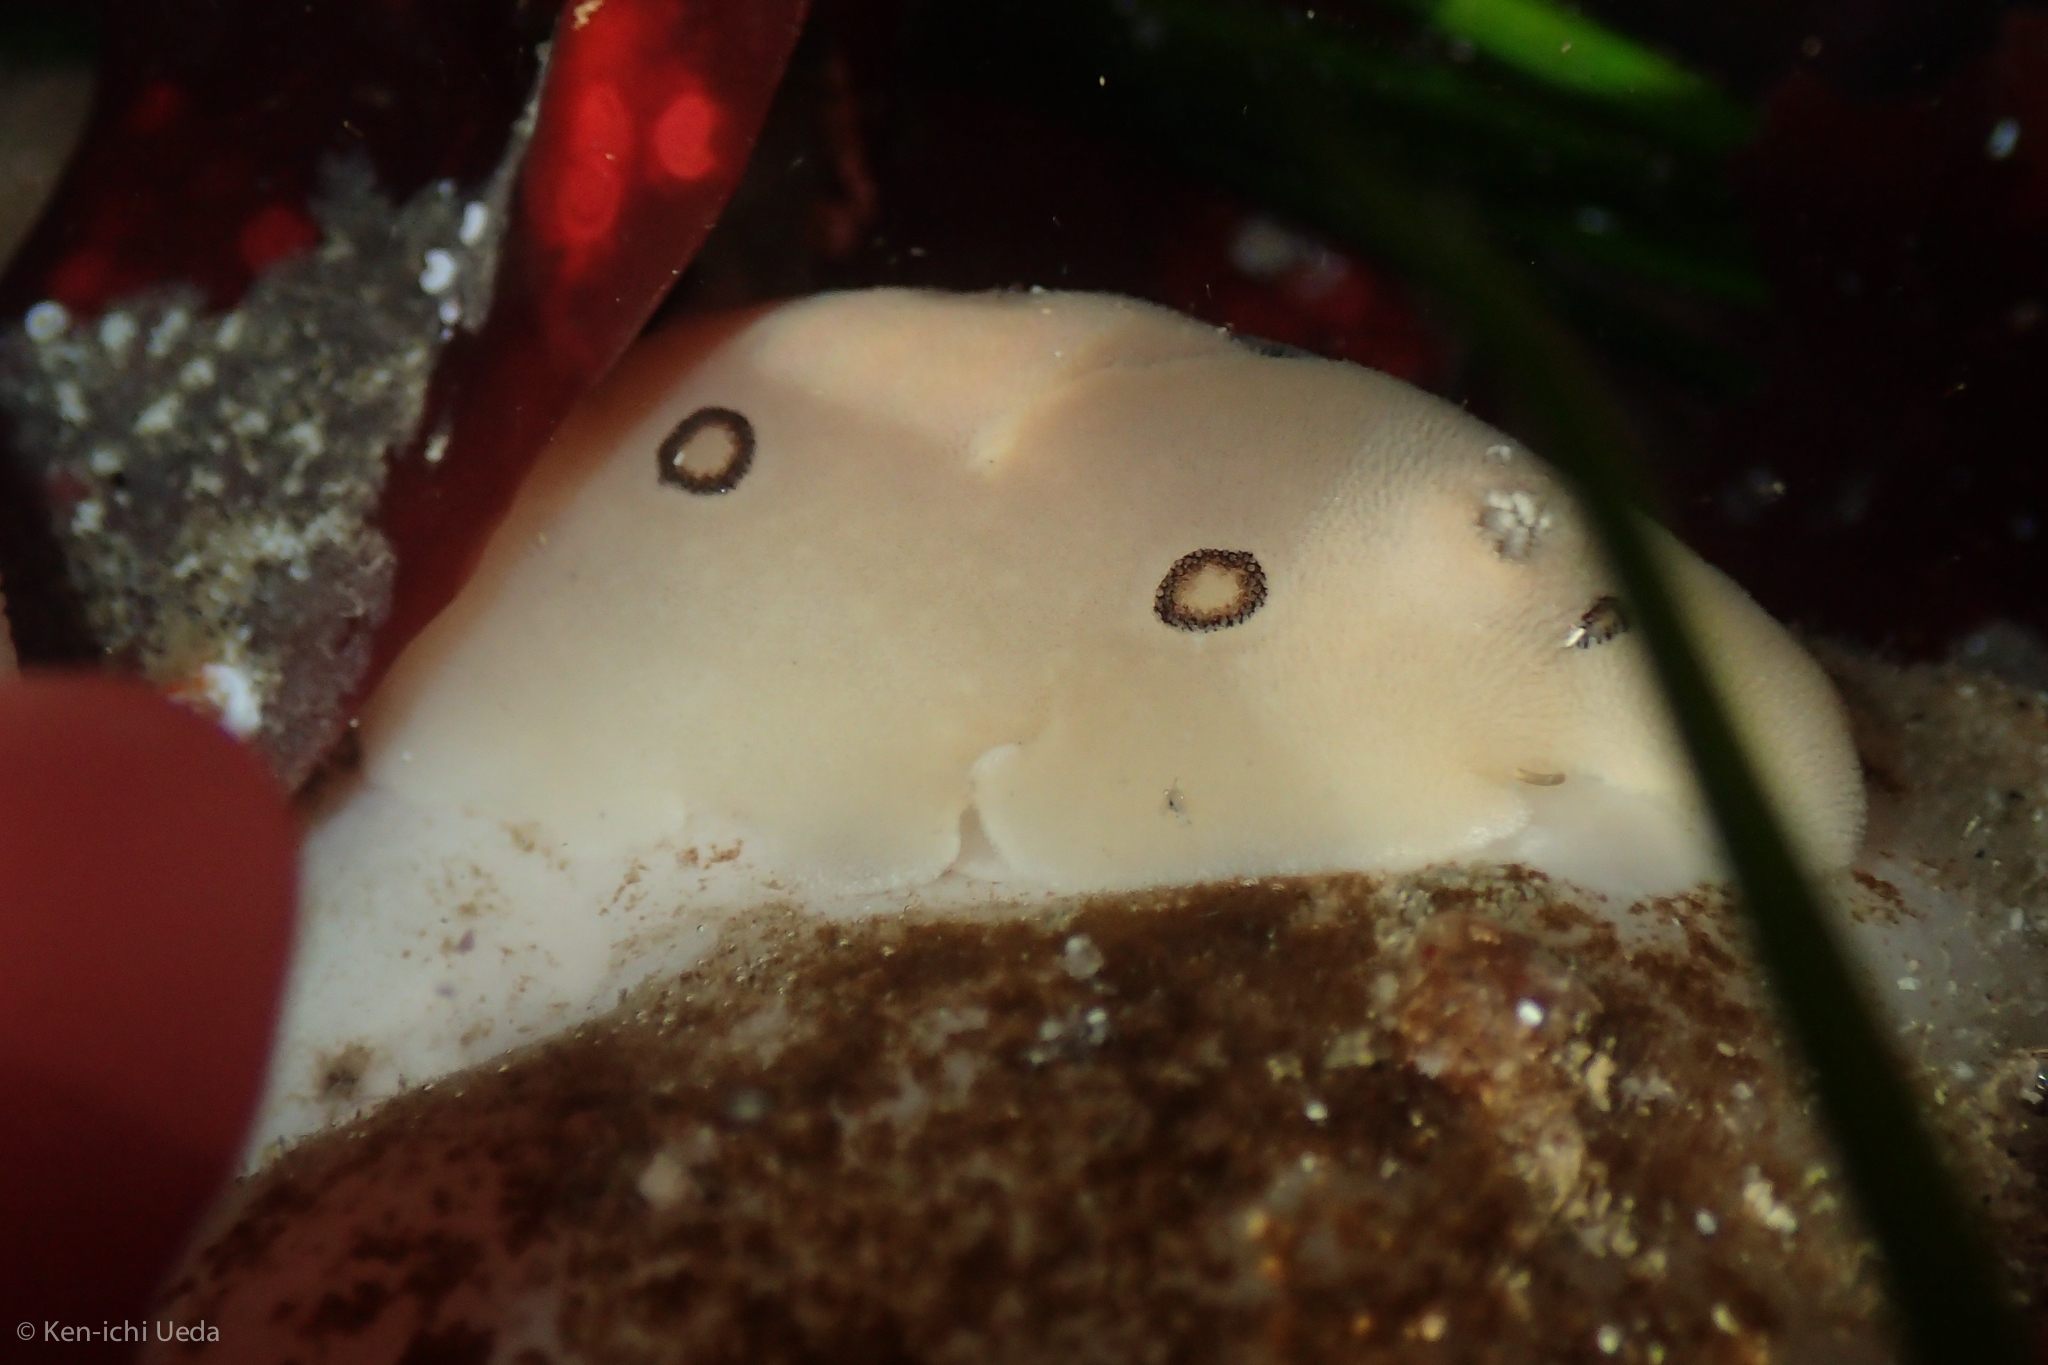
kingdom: Animalia
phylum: Mollusca
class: Gastropoda
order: Nudibranchia
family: Discodorididae
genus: Diaulula
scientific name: Diaulula sandiegensis
